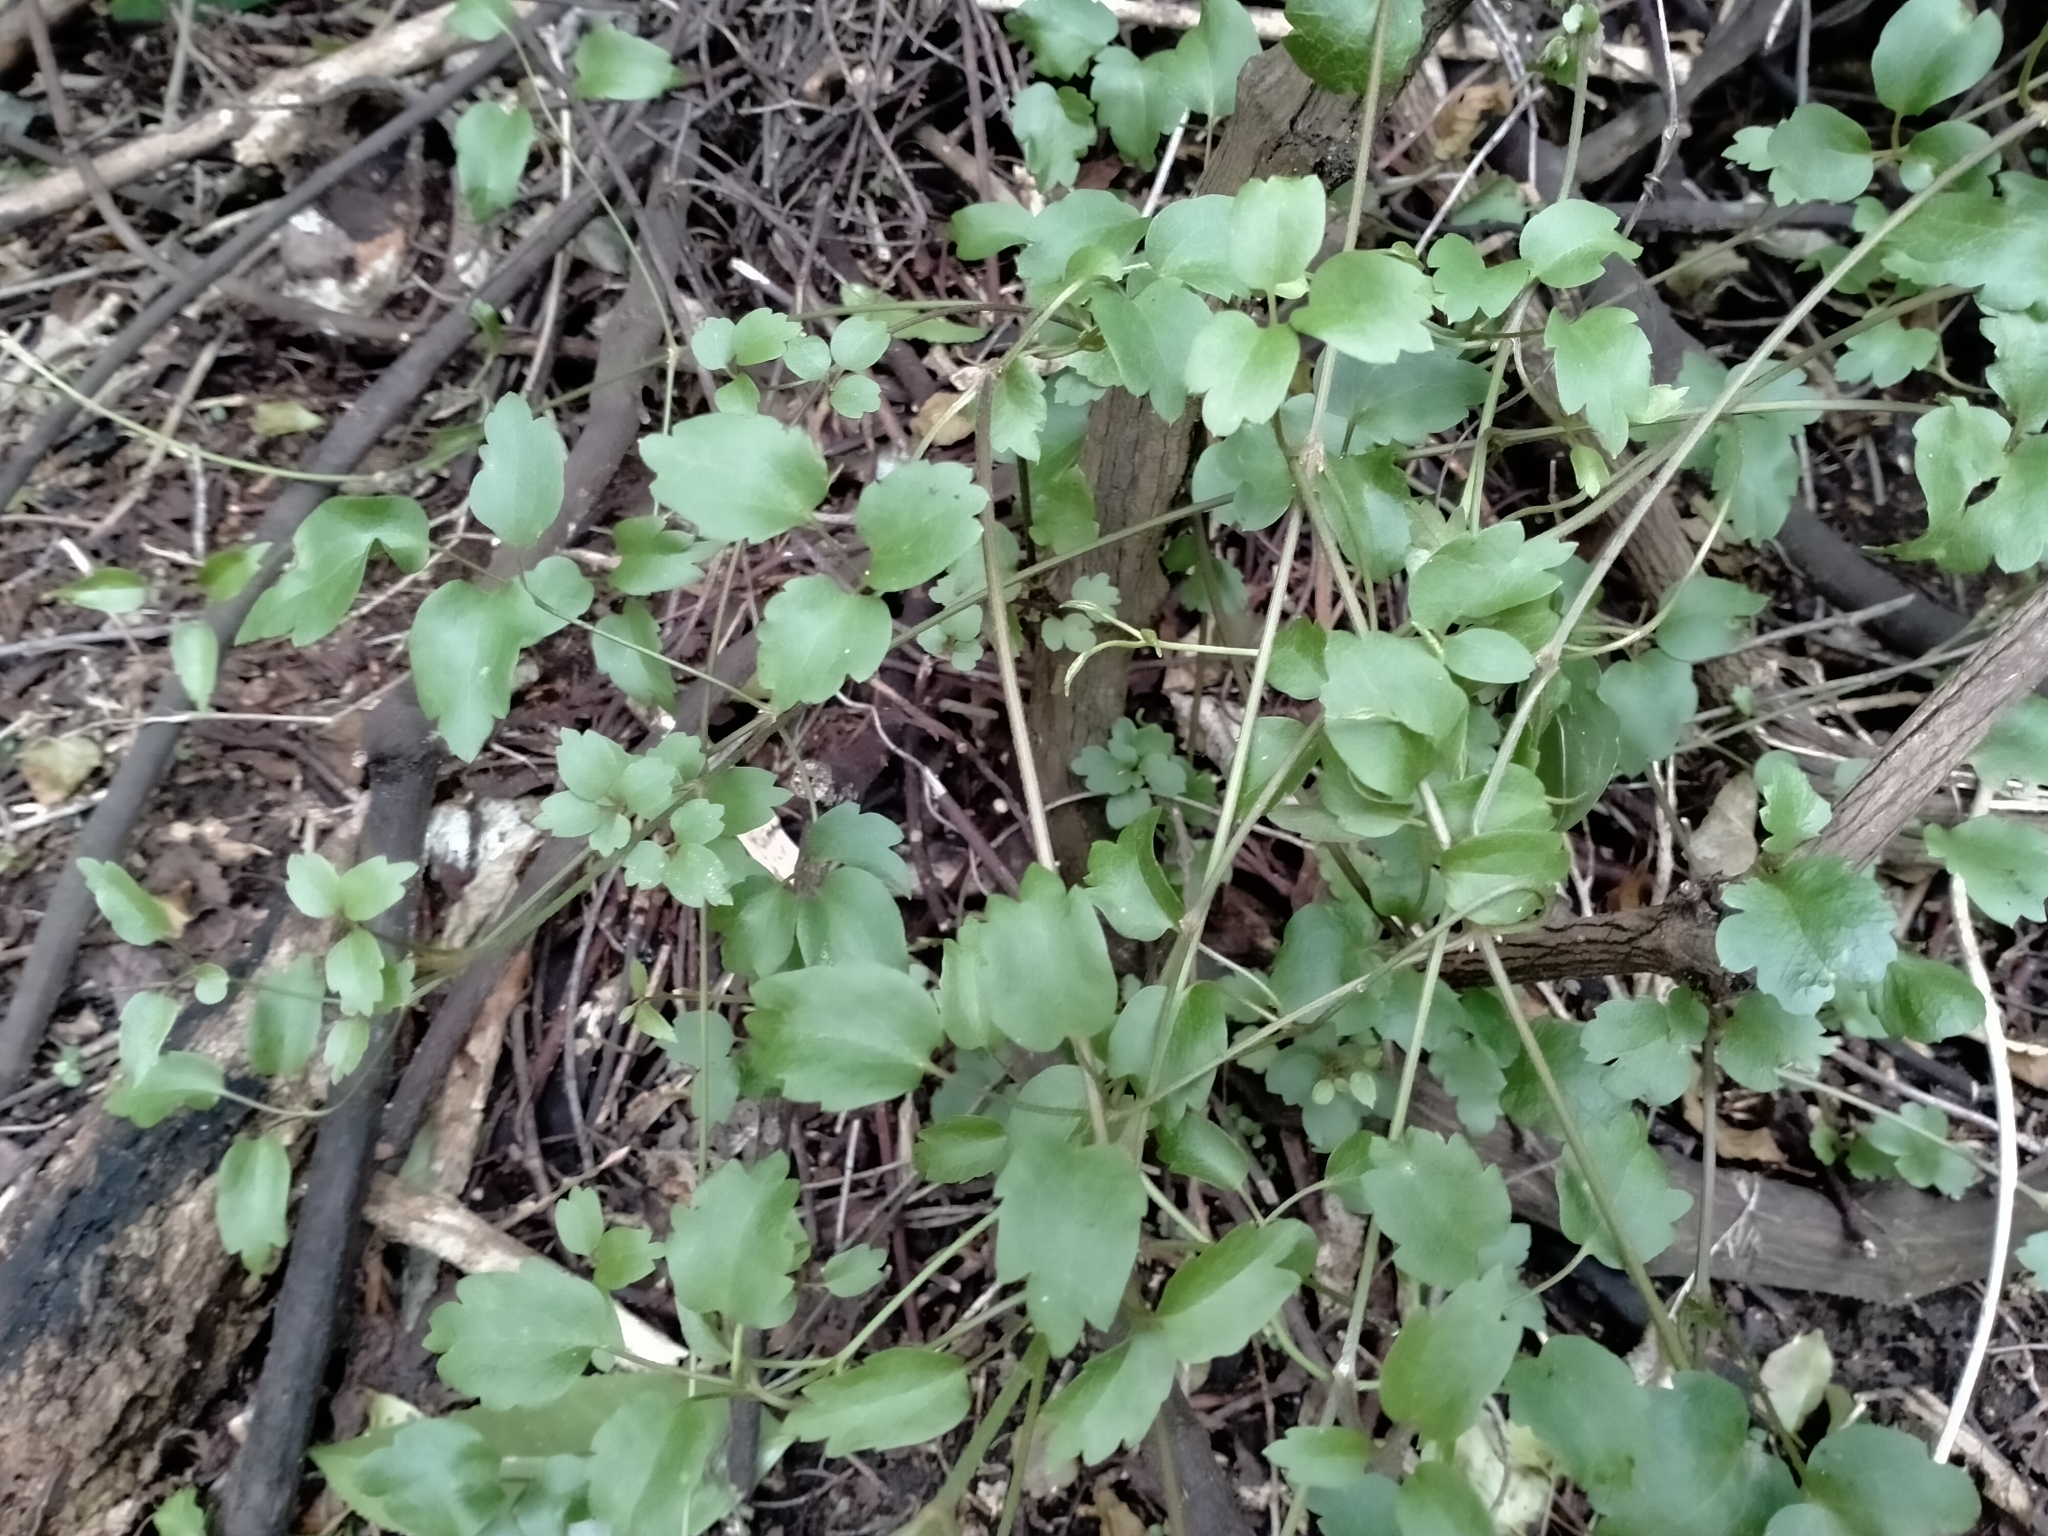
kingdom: Plantae
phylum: Tracheophyta
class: Magnoliopsida
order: Ranunculales
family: Ranunculaceae
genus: Clematis
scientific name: Clematis vitalba
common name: Evergreen clematis
